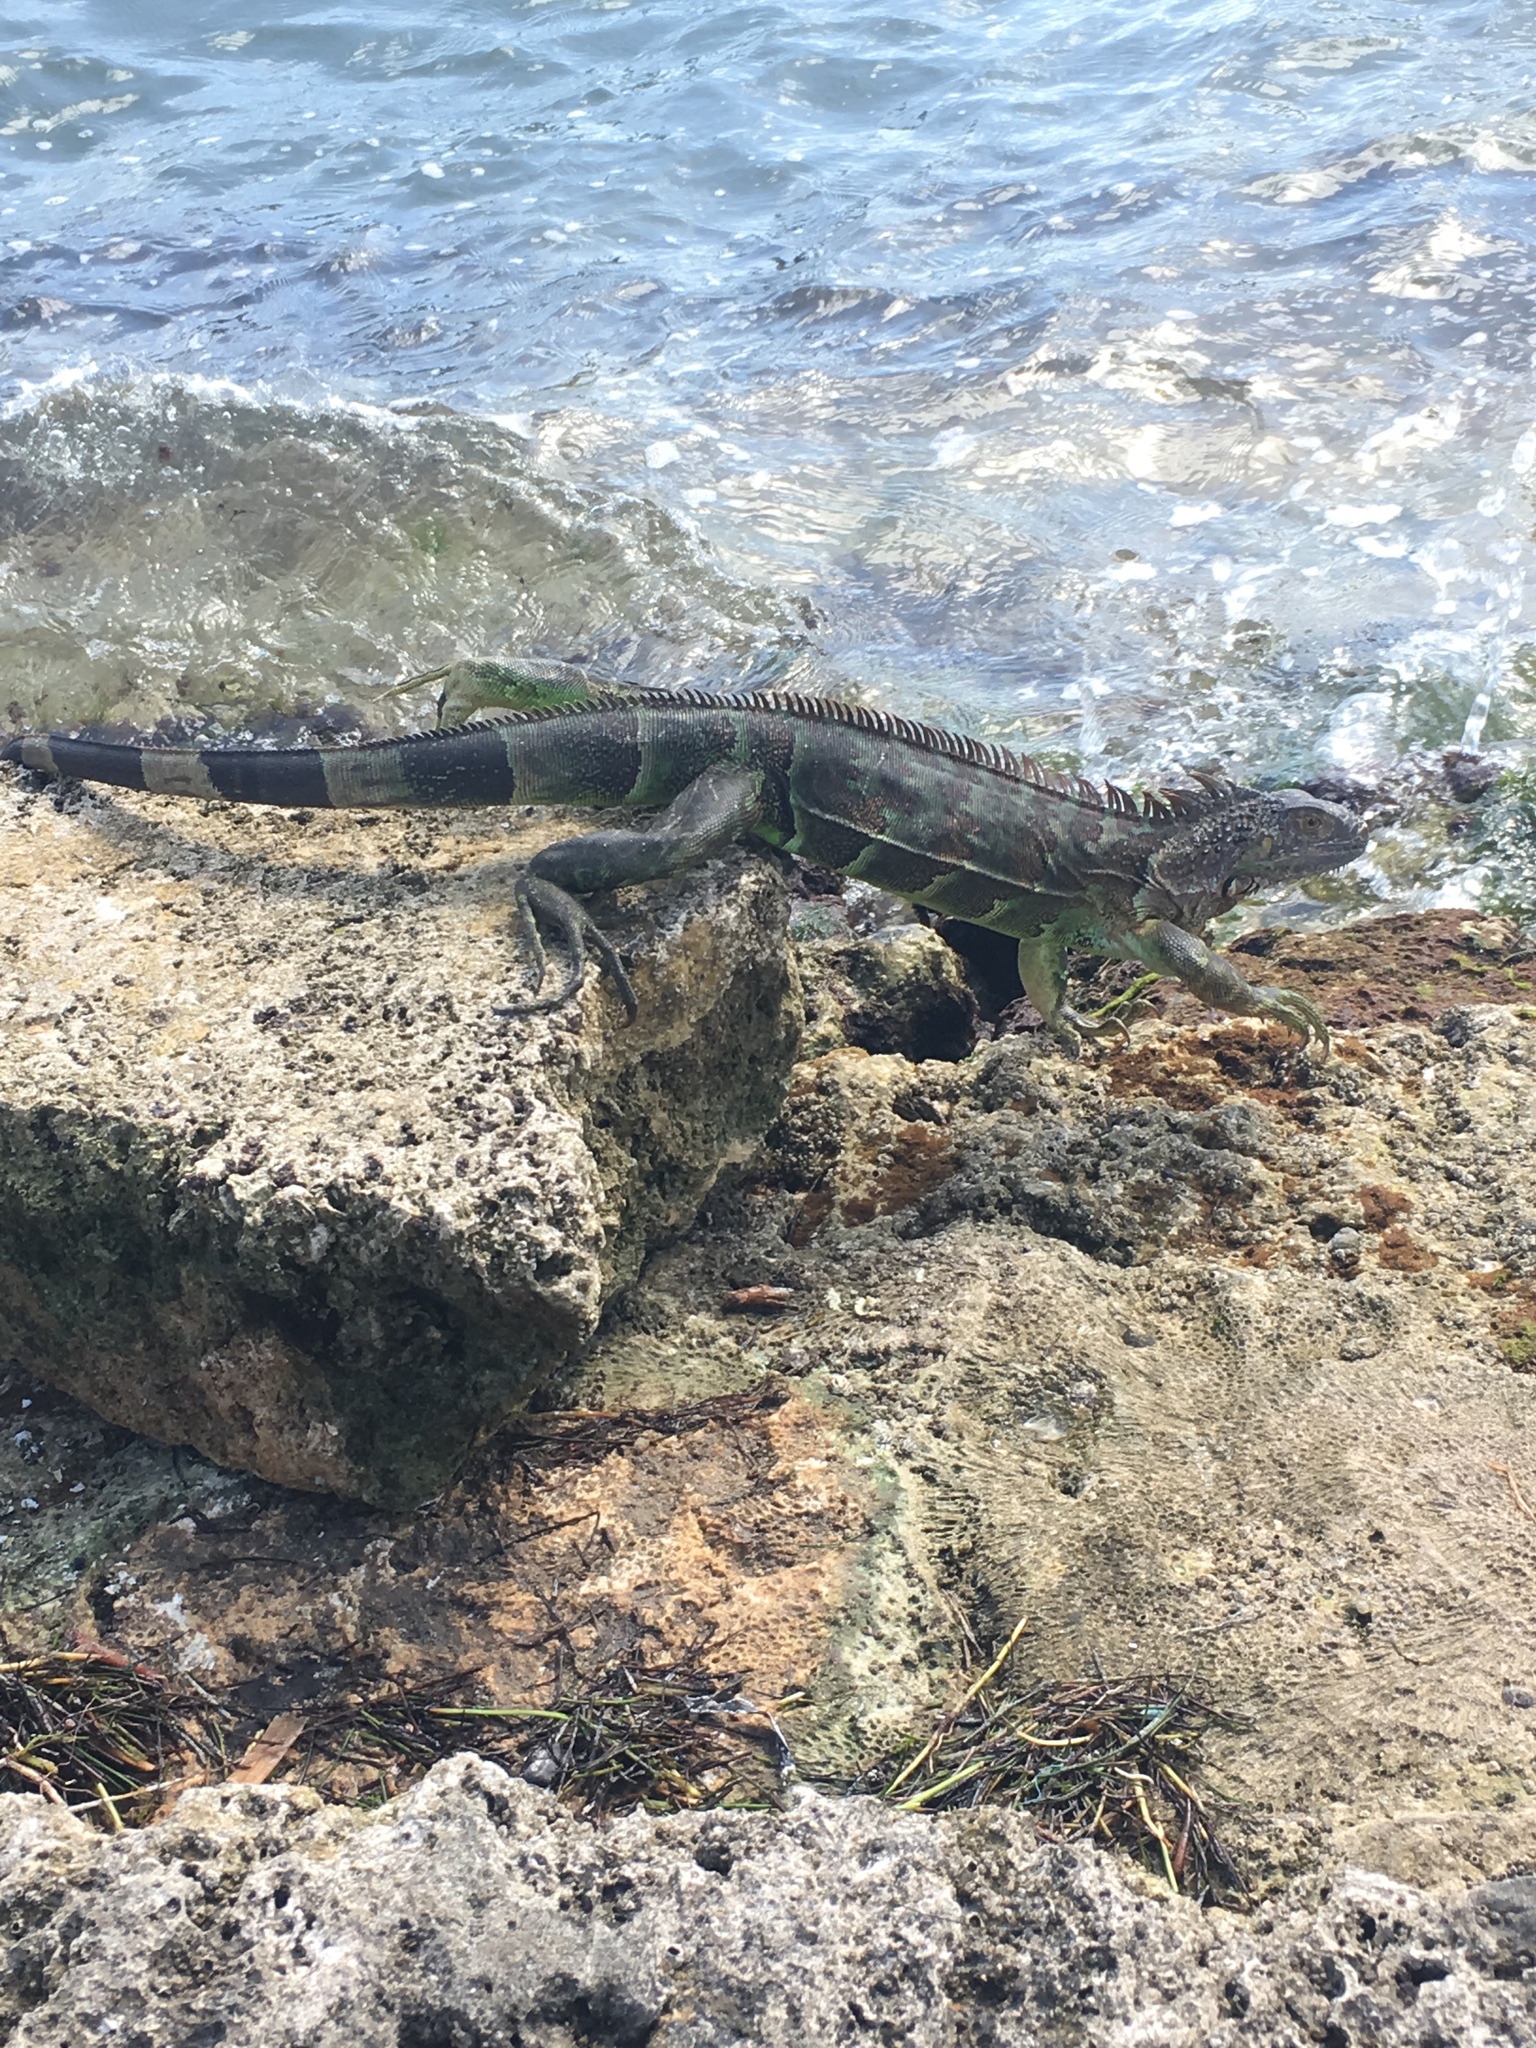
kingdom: Animalia
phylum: Chordata
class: Squamata
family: Iguanidae
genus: Iguana
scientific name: Iguana iguana
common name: Green iguana
